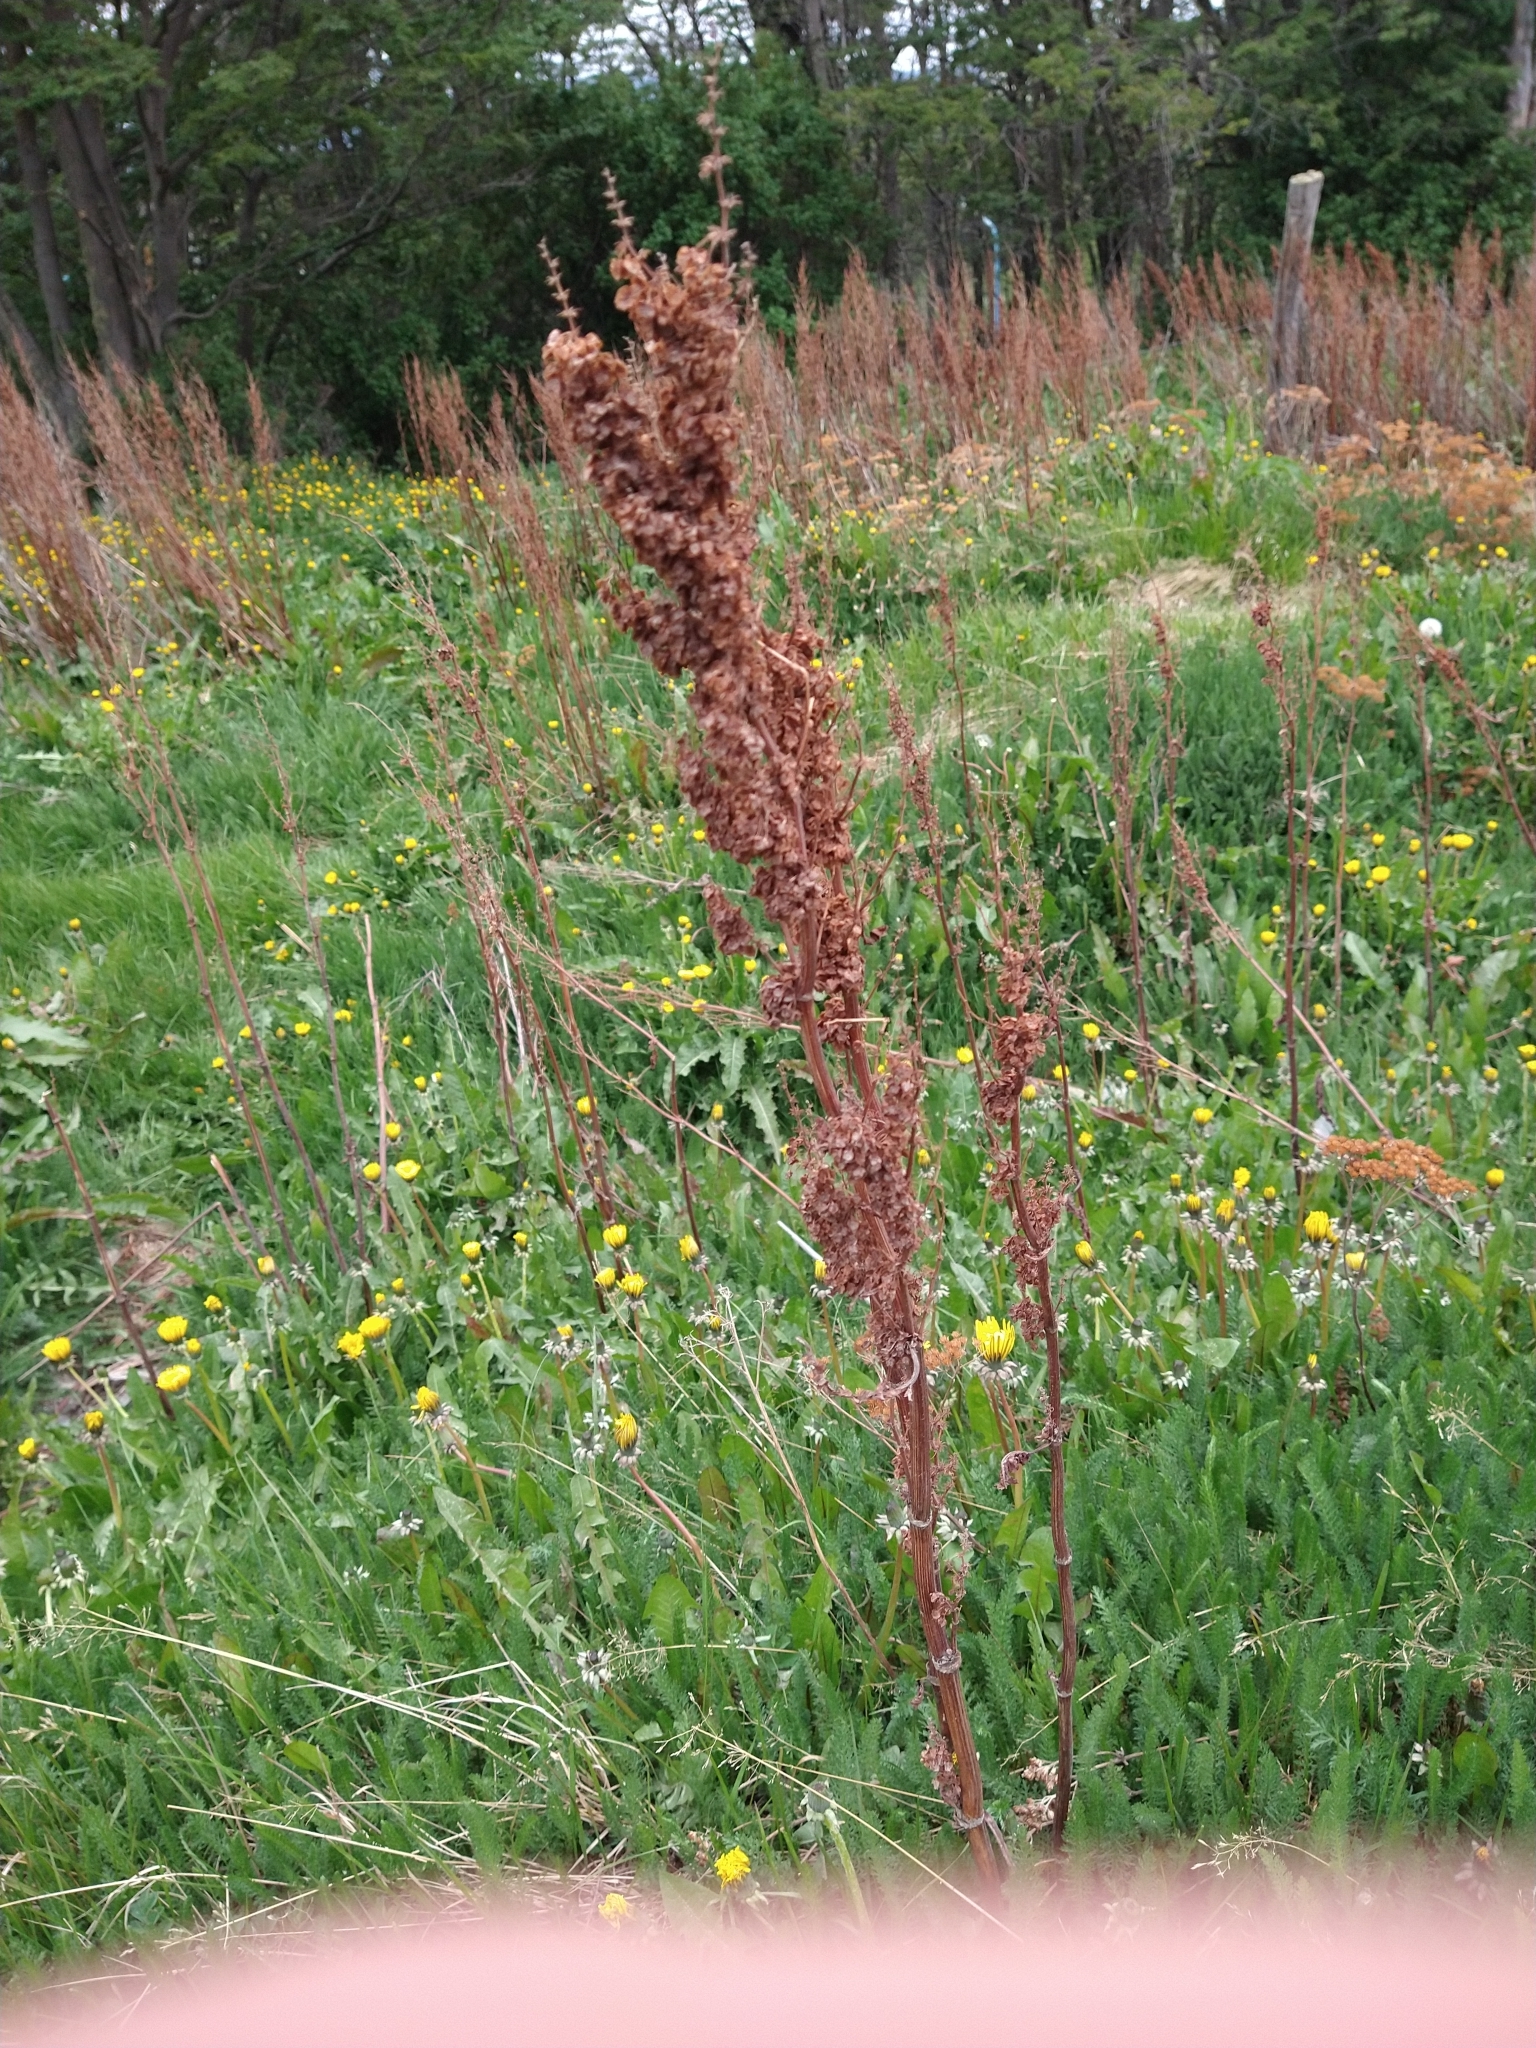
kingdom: Plantae
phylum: Tracheophyta
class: Magnoliopsida
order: Caryophyllales
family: Polygonaceae
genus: Rumex
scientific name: Rumex crispus
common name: Curled dock
